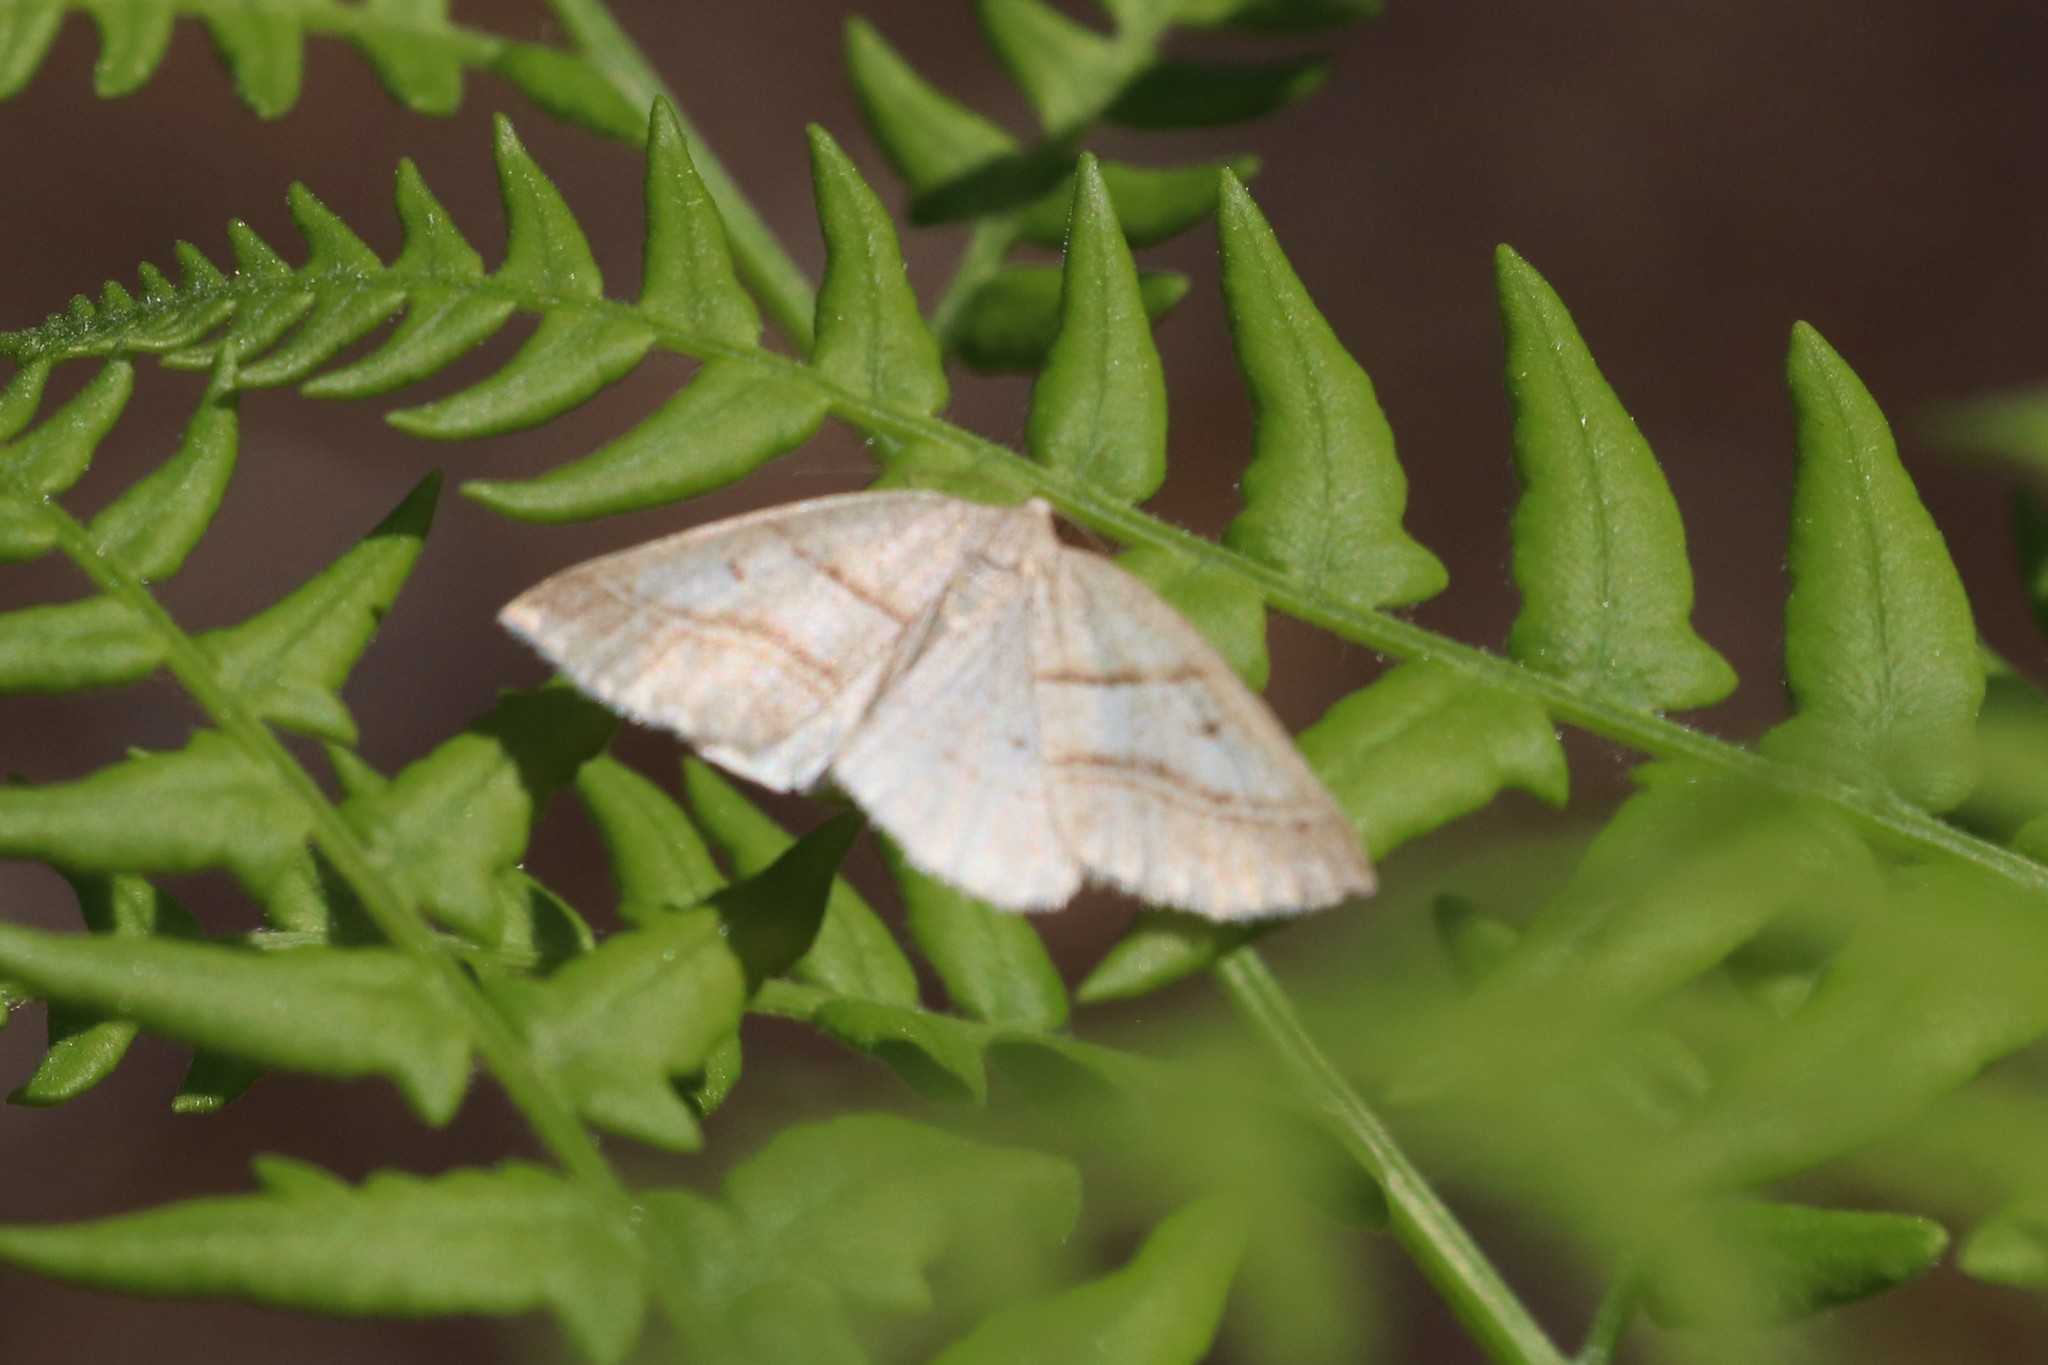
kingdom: Animalia
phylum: Arthropoda
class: Insecta
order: Lepidoptera
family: Pterophoridae
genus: Pterophorus
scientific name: Pterophorus Petrophora subaequaria
